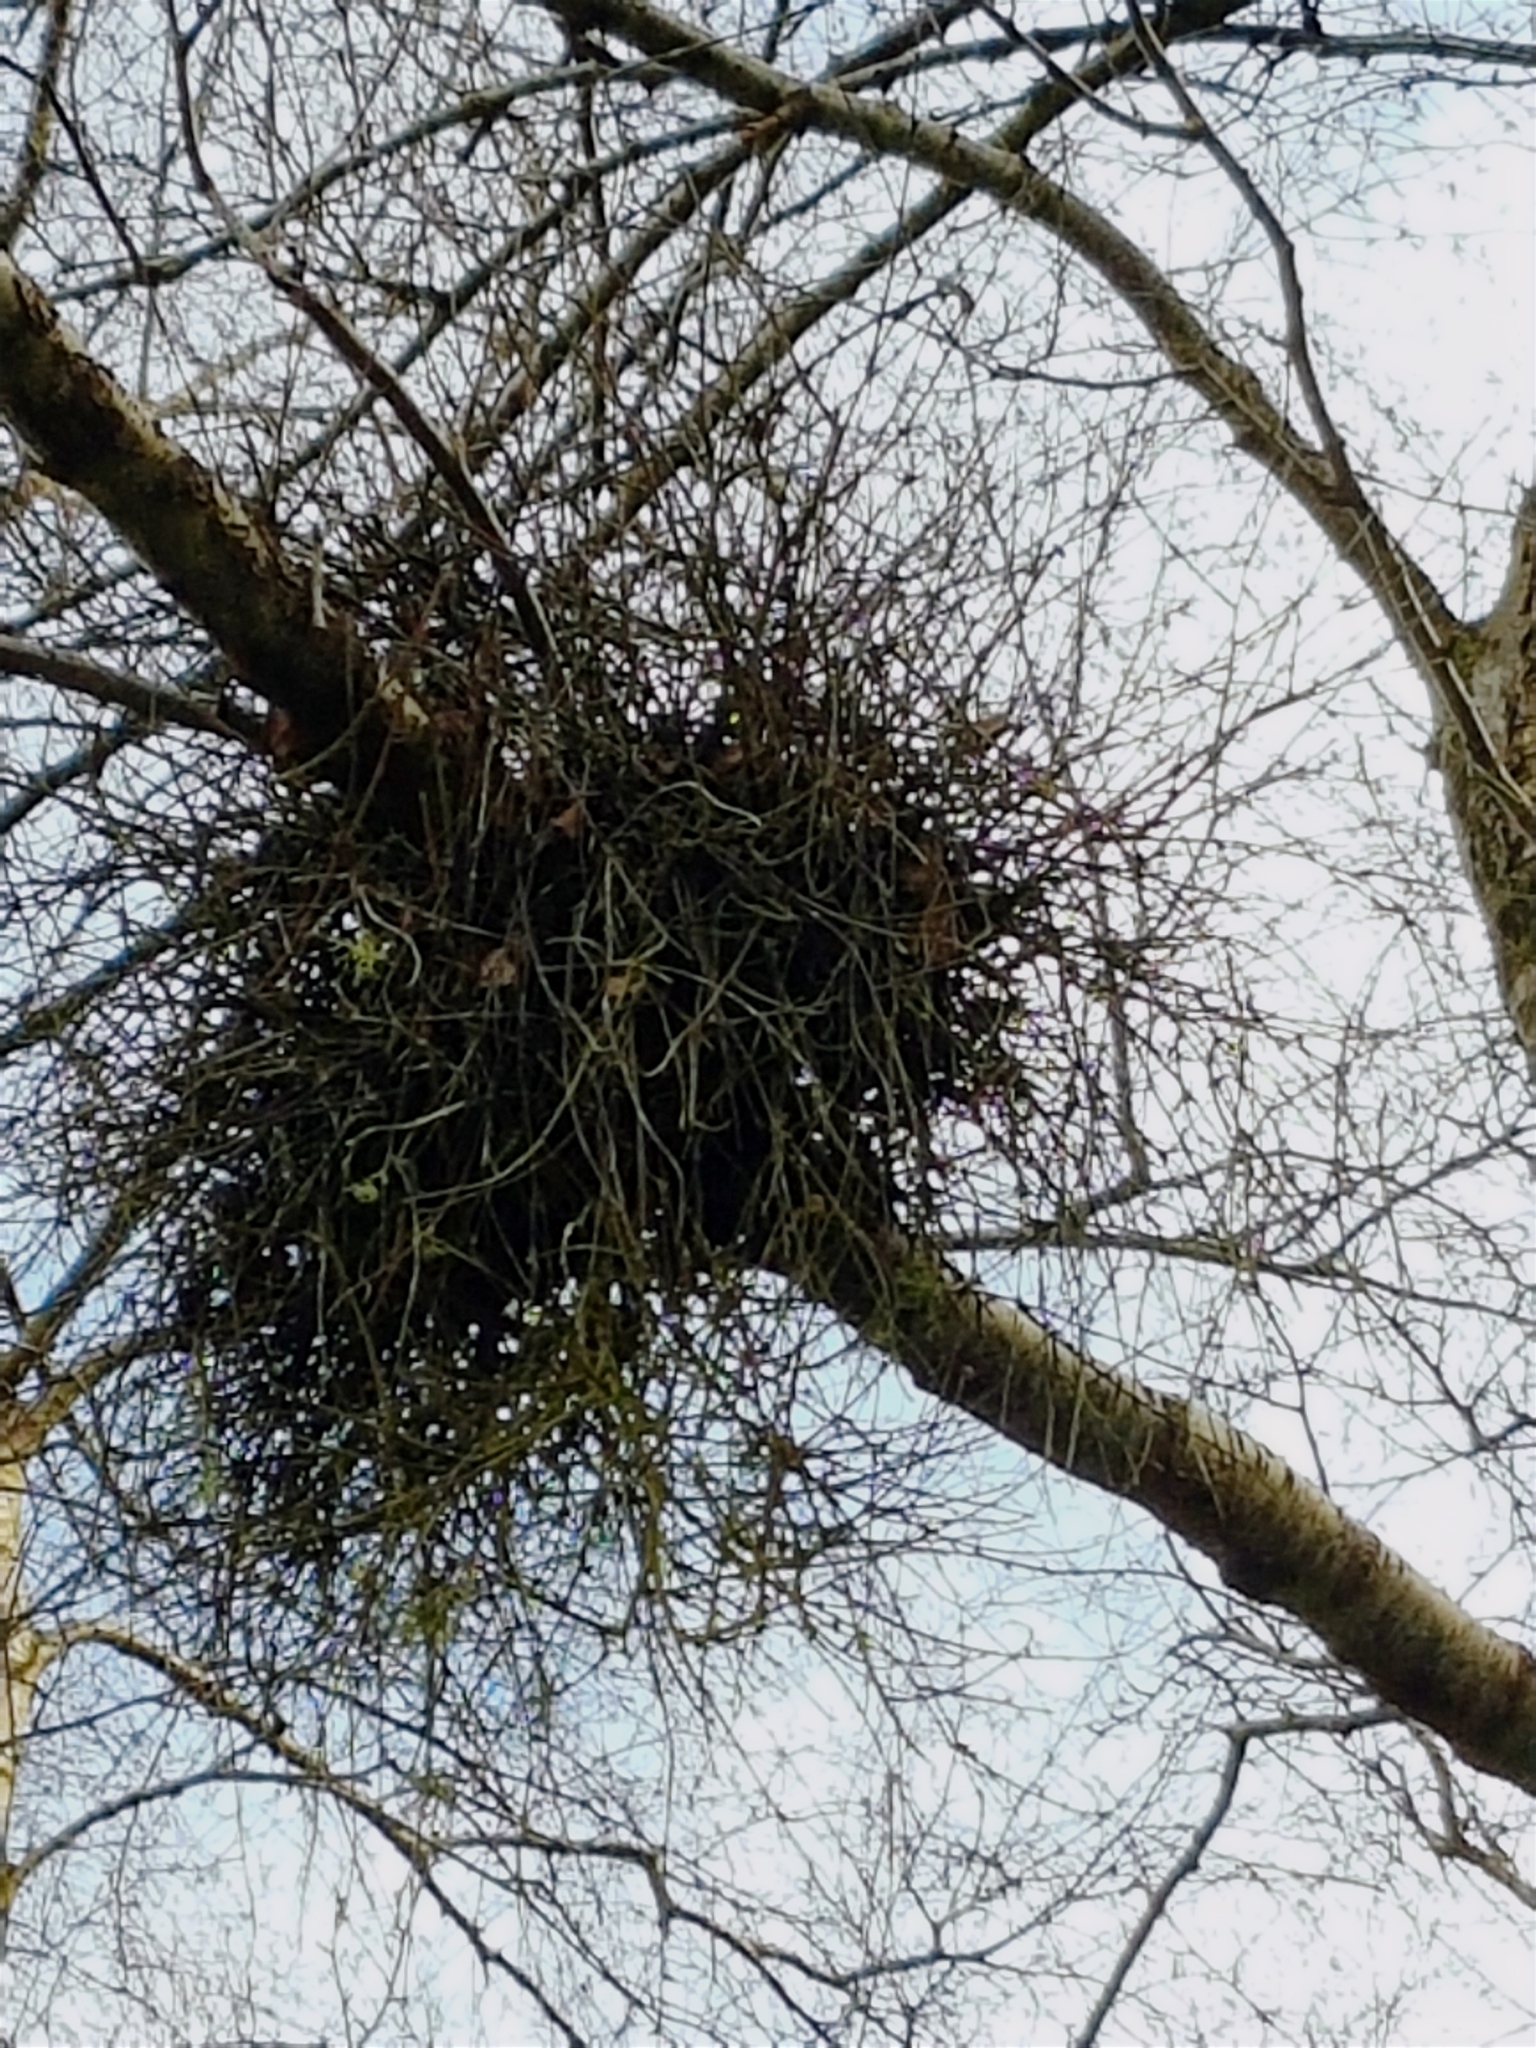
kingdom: Fungi
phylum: Ascomycota
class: Taphrinomycetes
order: Taphrinales
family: Taphrinaceae
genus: Taphrina
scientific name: Taphrina betulina
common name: Birch besom
